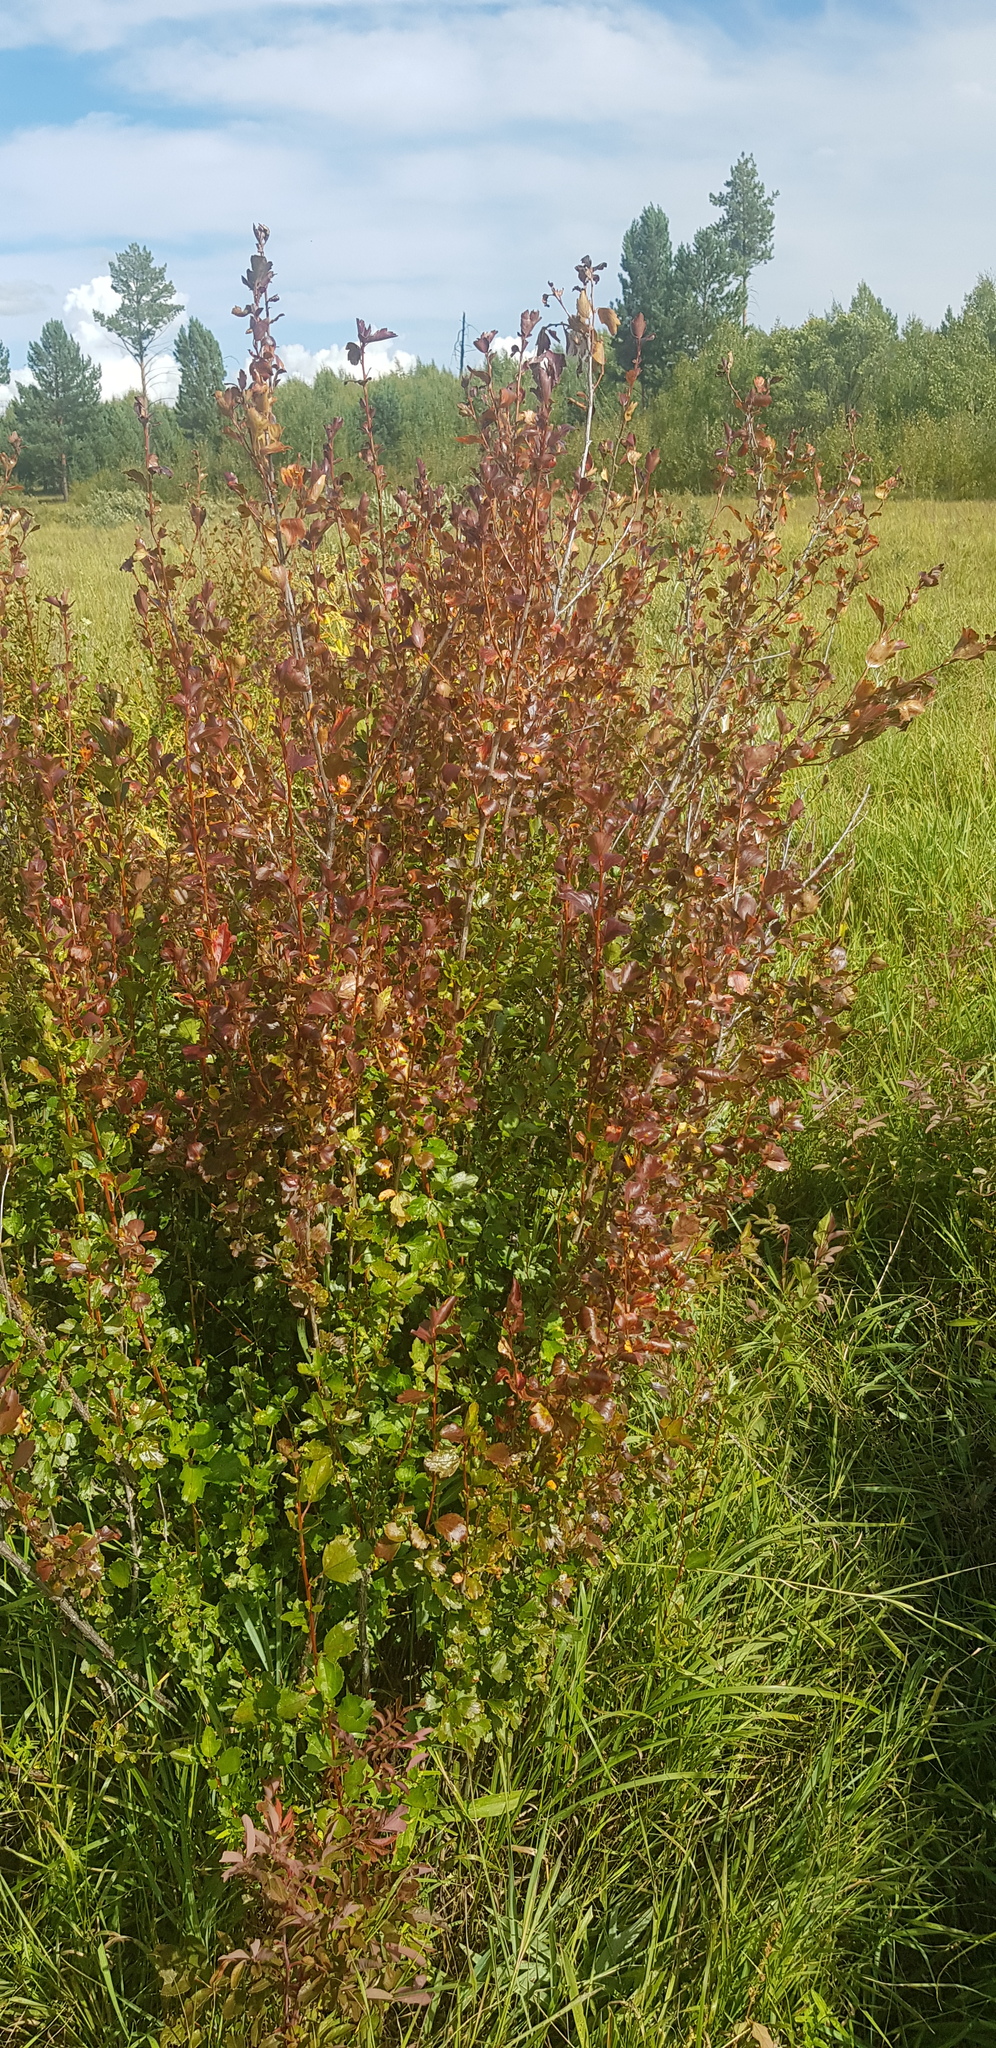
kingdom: Plantae
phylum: Tracheophyta
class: Magnoliopsida
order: Saxifragales
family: Grossulariaceae
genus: Ribes
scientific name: Ribes diacanthum
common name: Siberian currant
